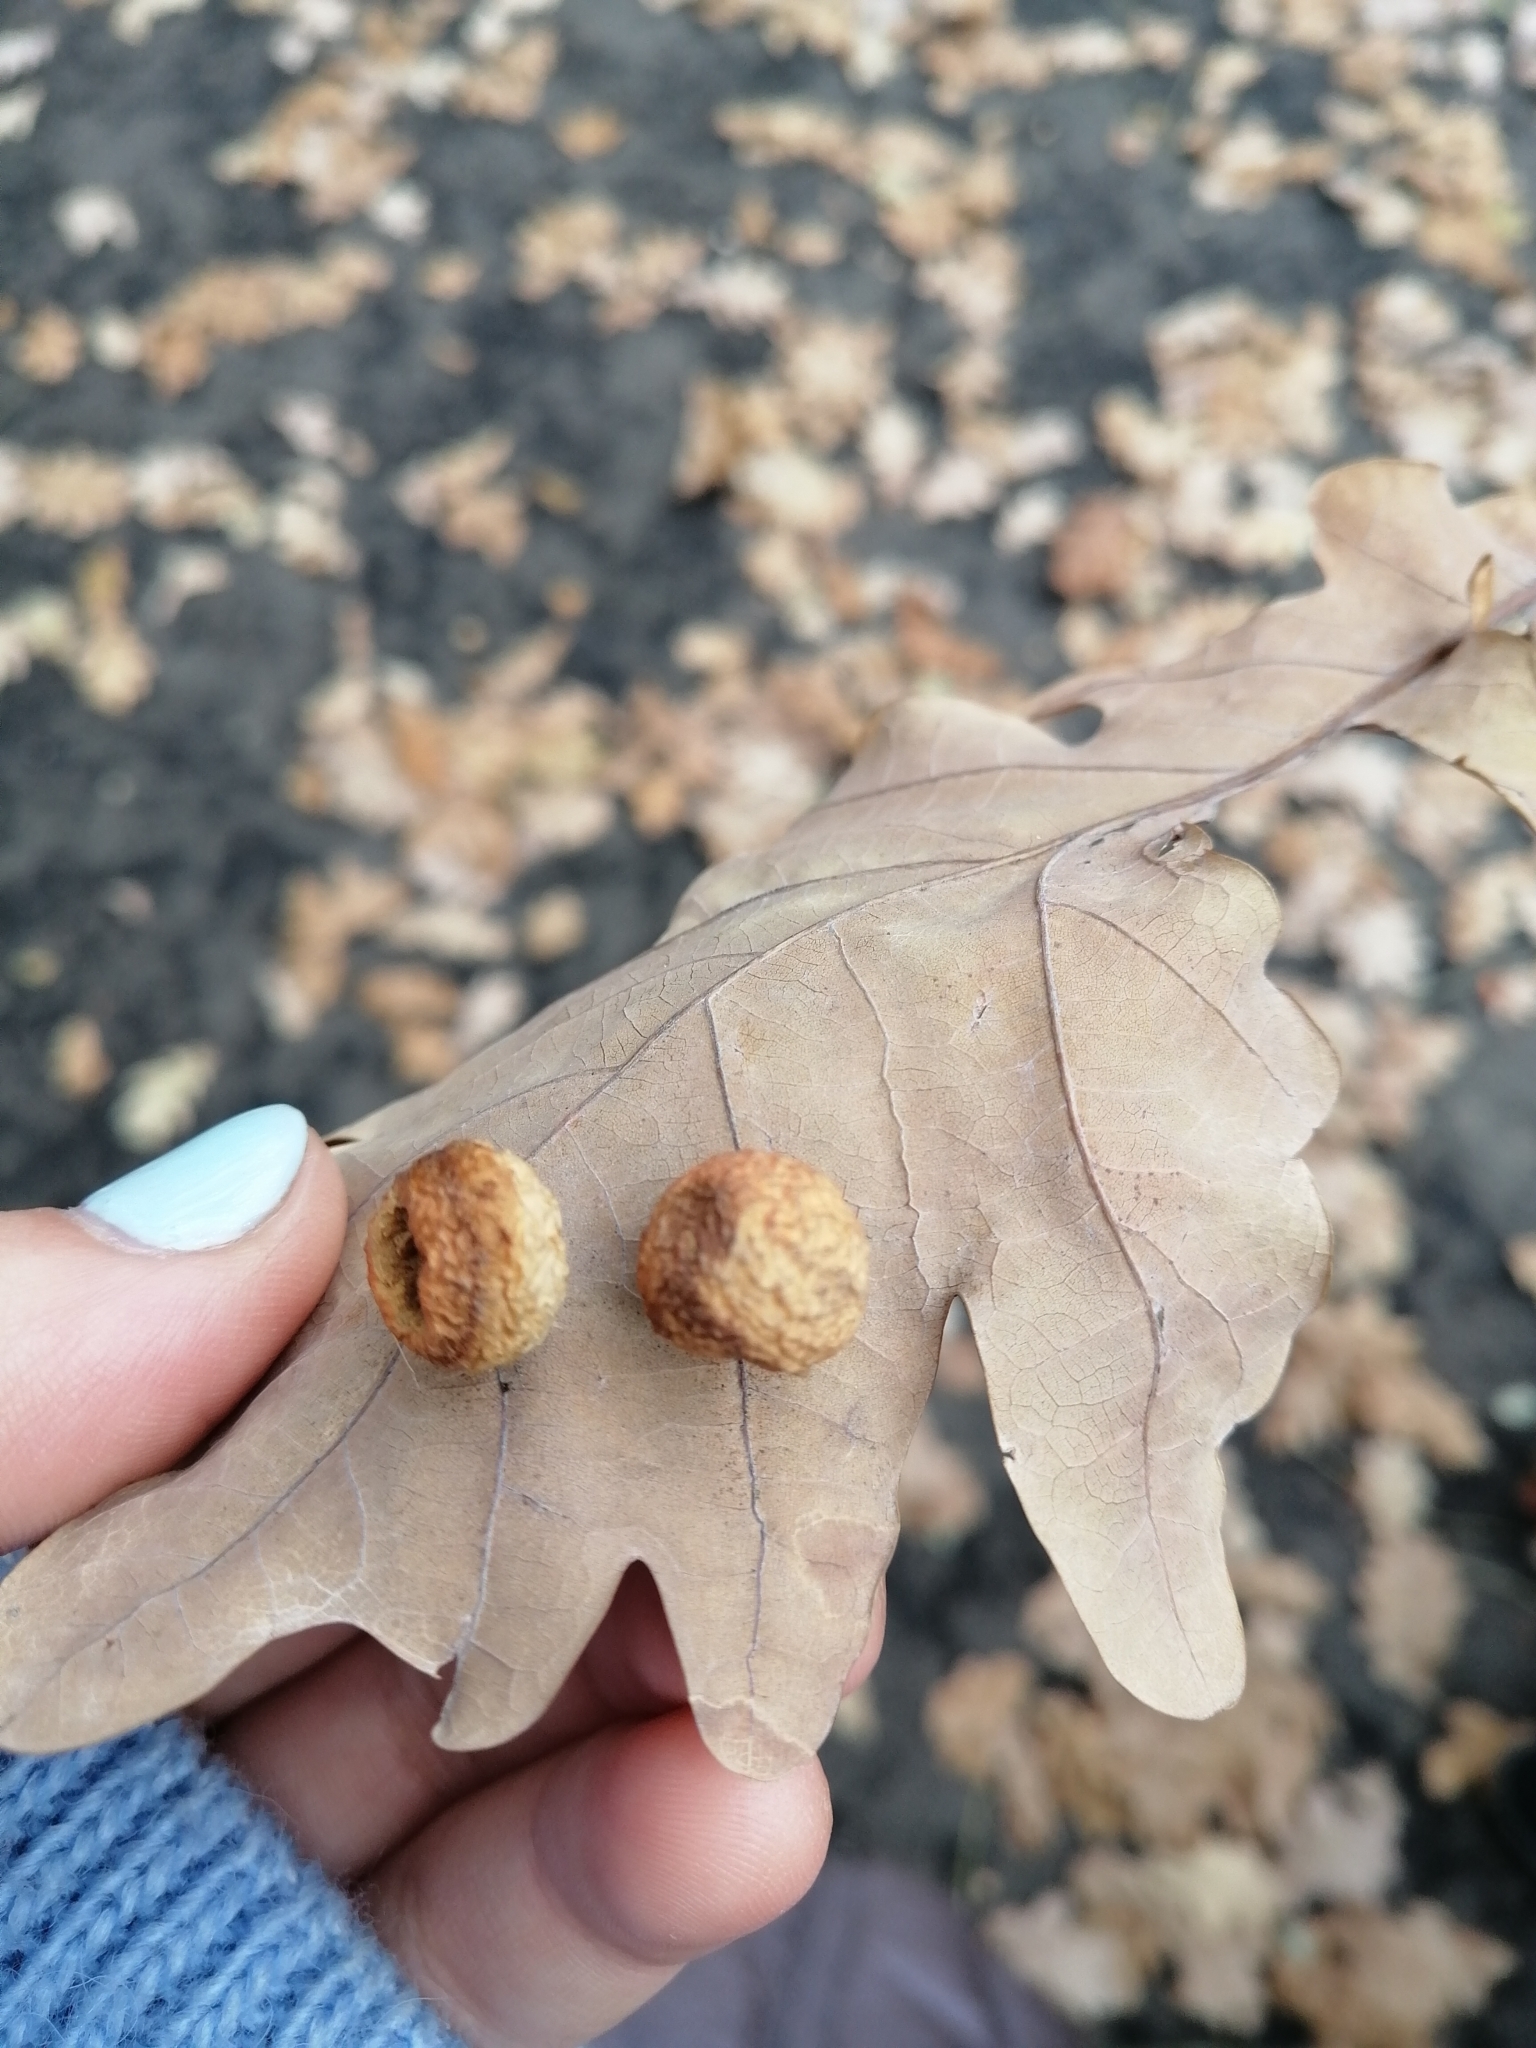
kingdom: Animalia
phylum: Arthropoda
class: Insecta
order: Hymenoptera
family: Cynipidae
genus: Cynips
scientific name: Cynips quercusfolii
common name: Cherry gall
